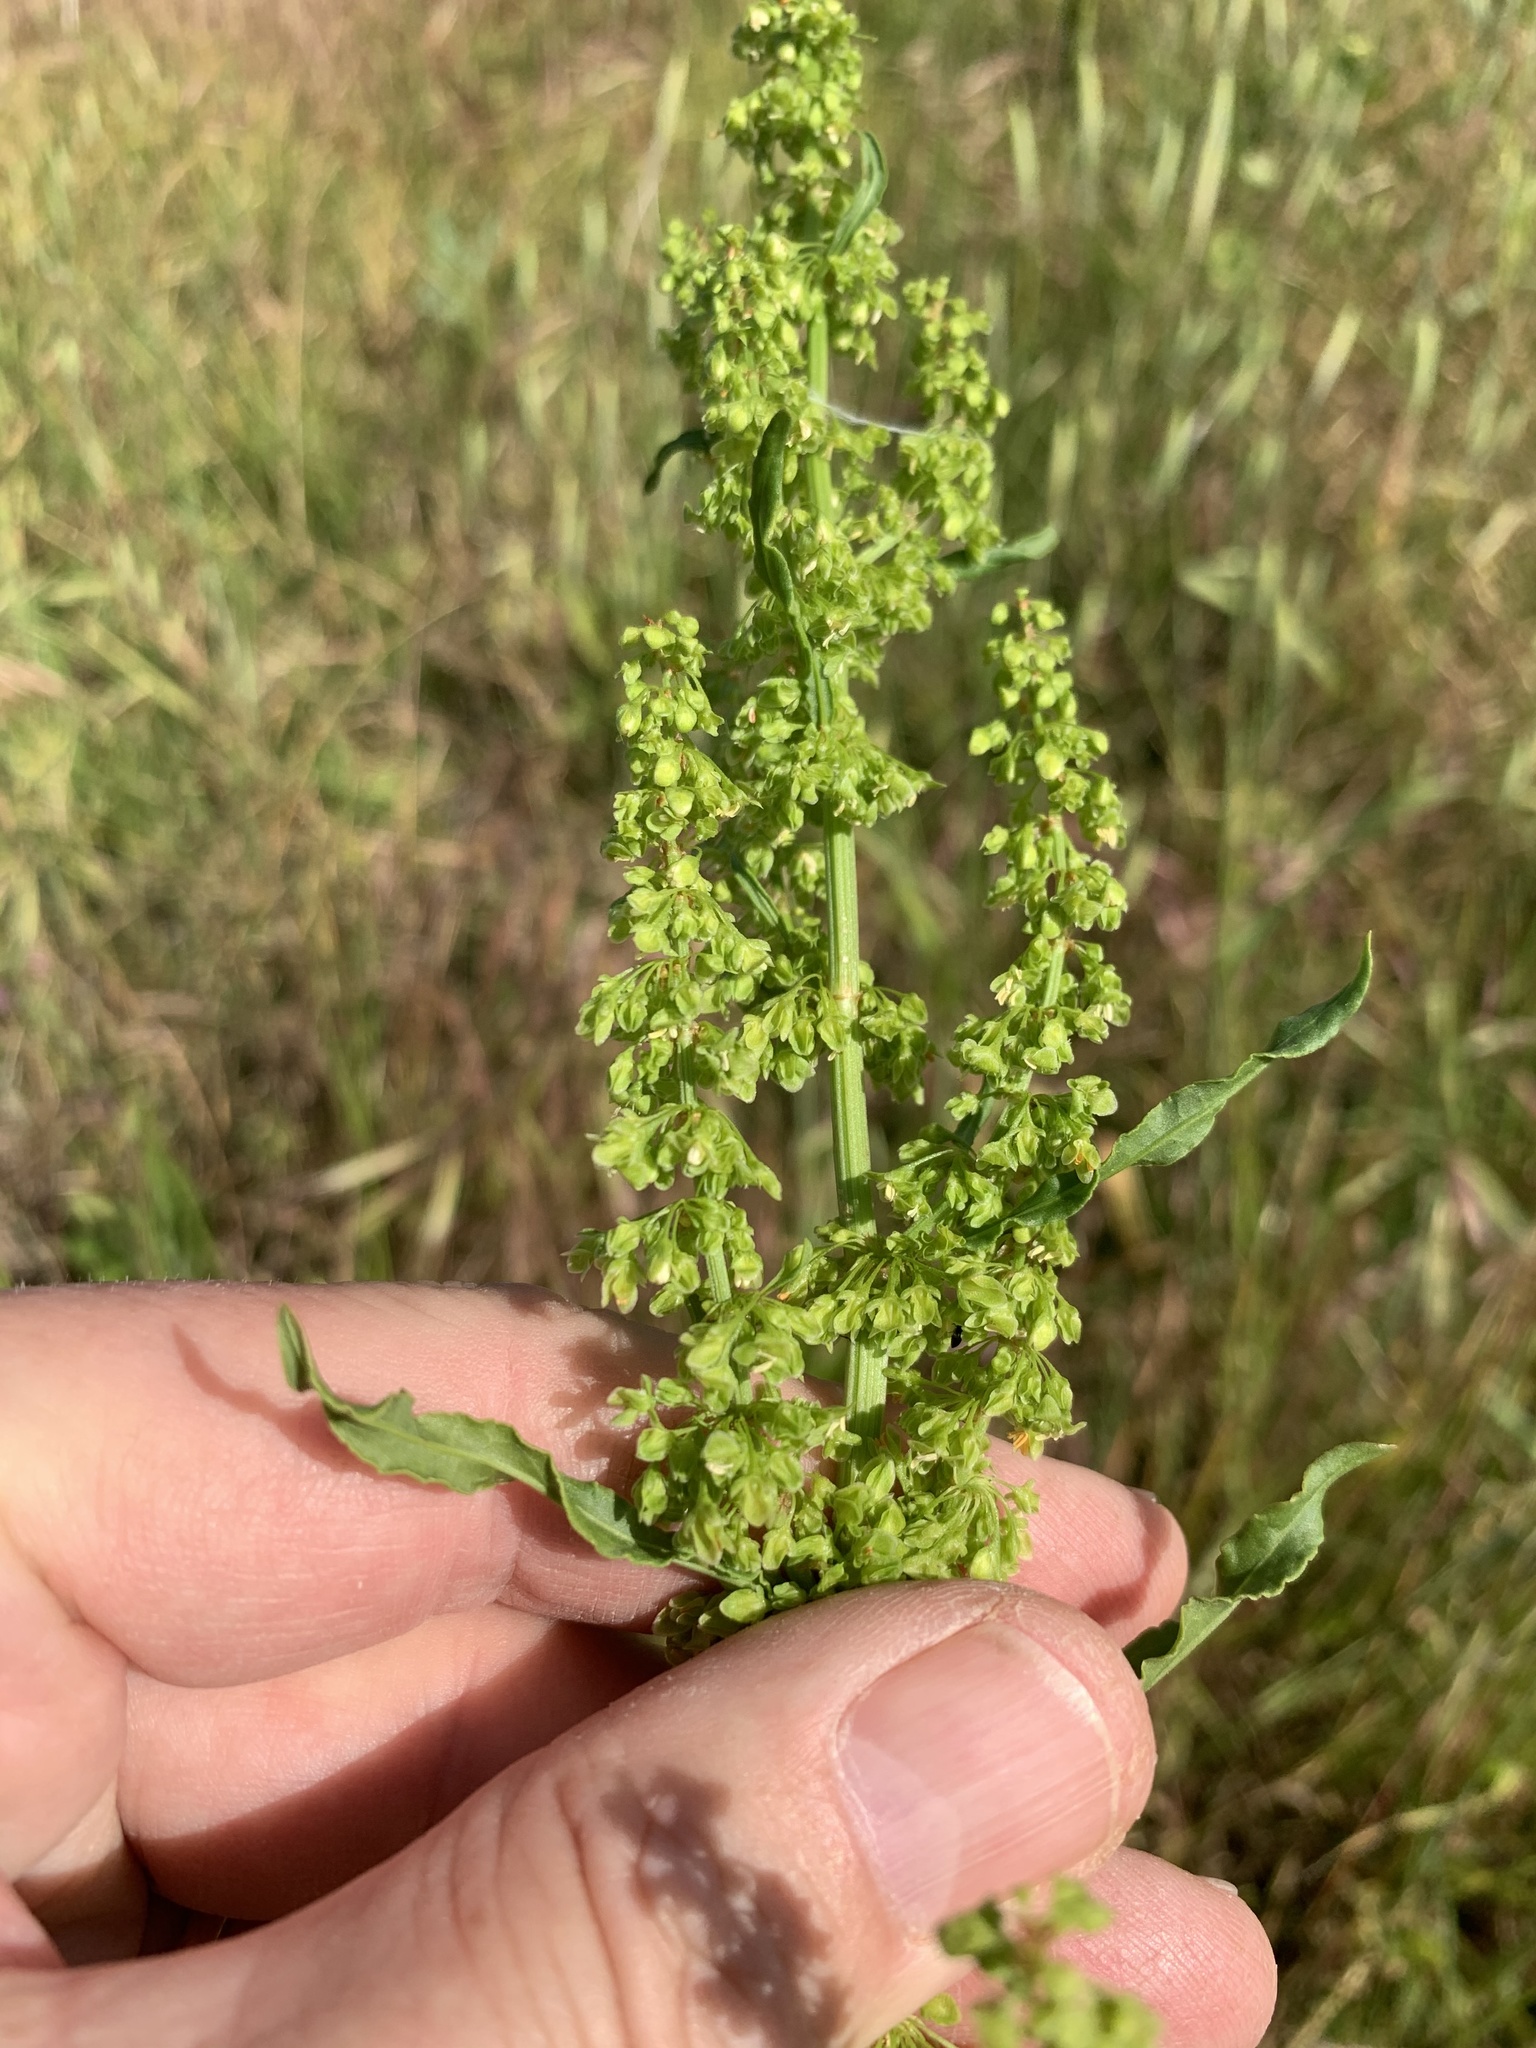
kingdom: Plantae
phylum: Tracheophyta
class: Magnoliopsida
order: Caryophyllales
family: Polygonaceae
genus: Rumex
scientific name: Rumex crispus
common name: Curled dock
